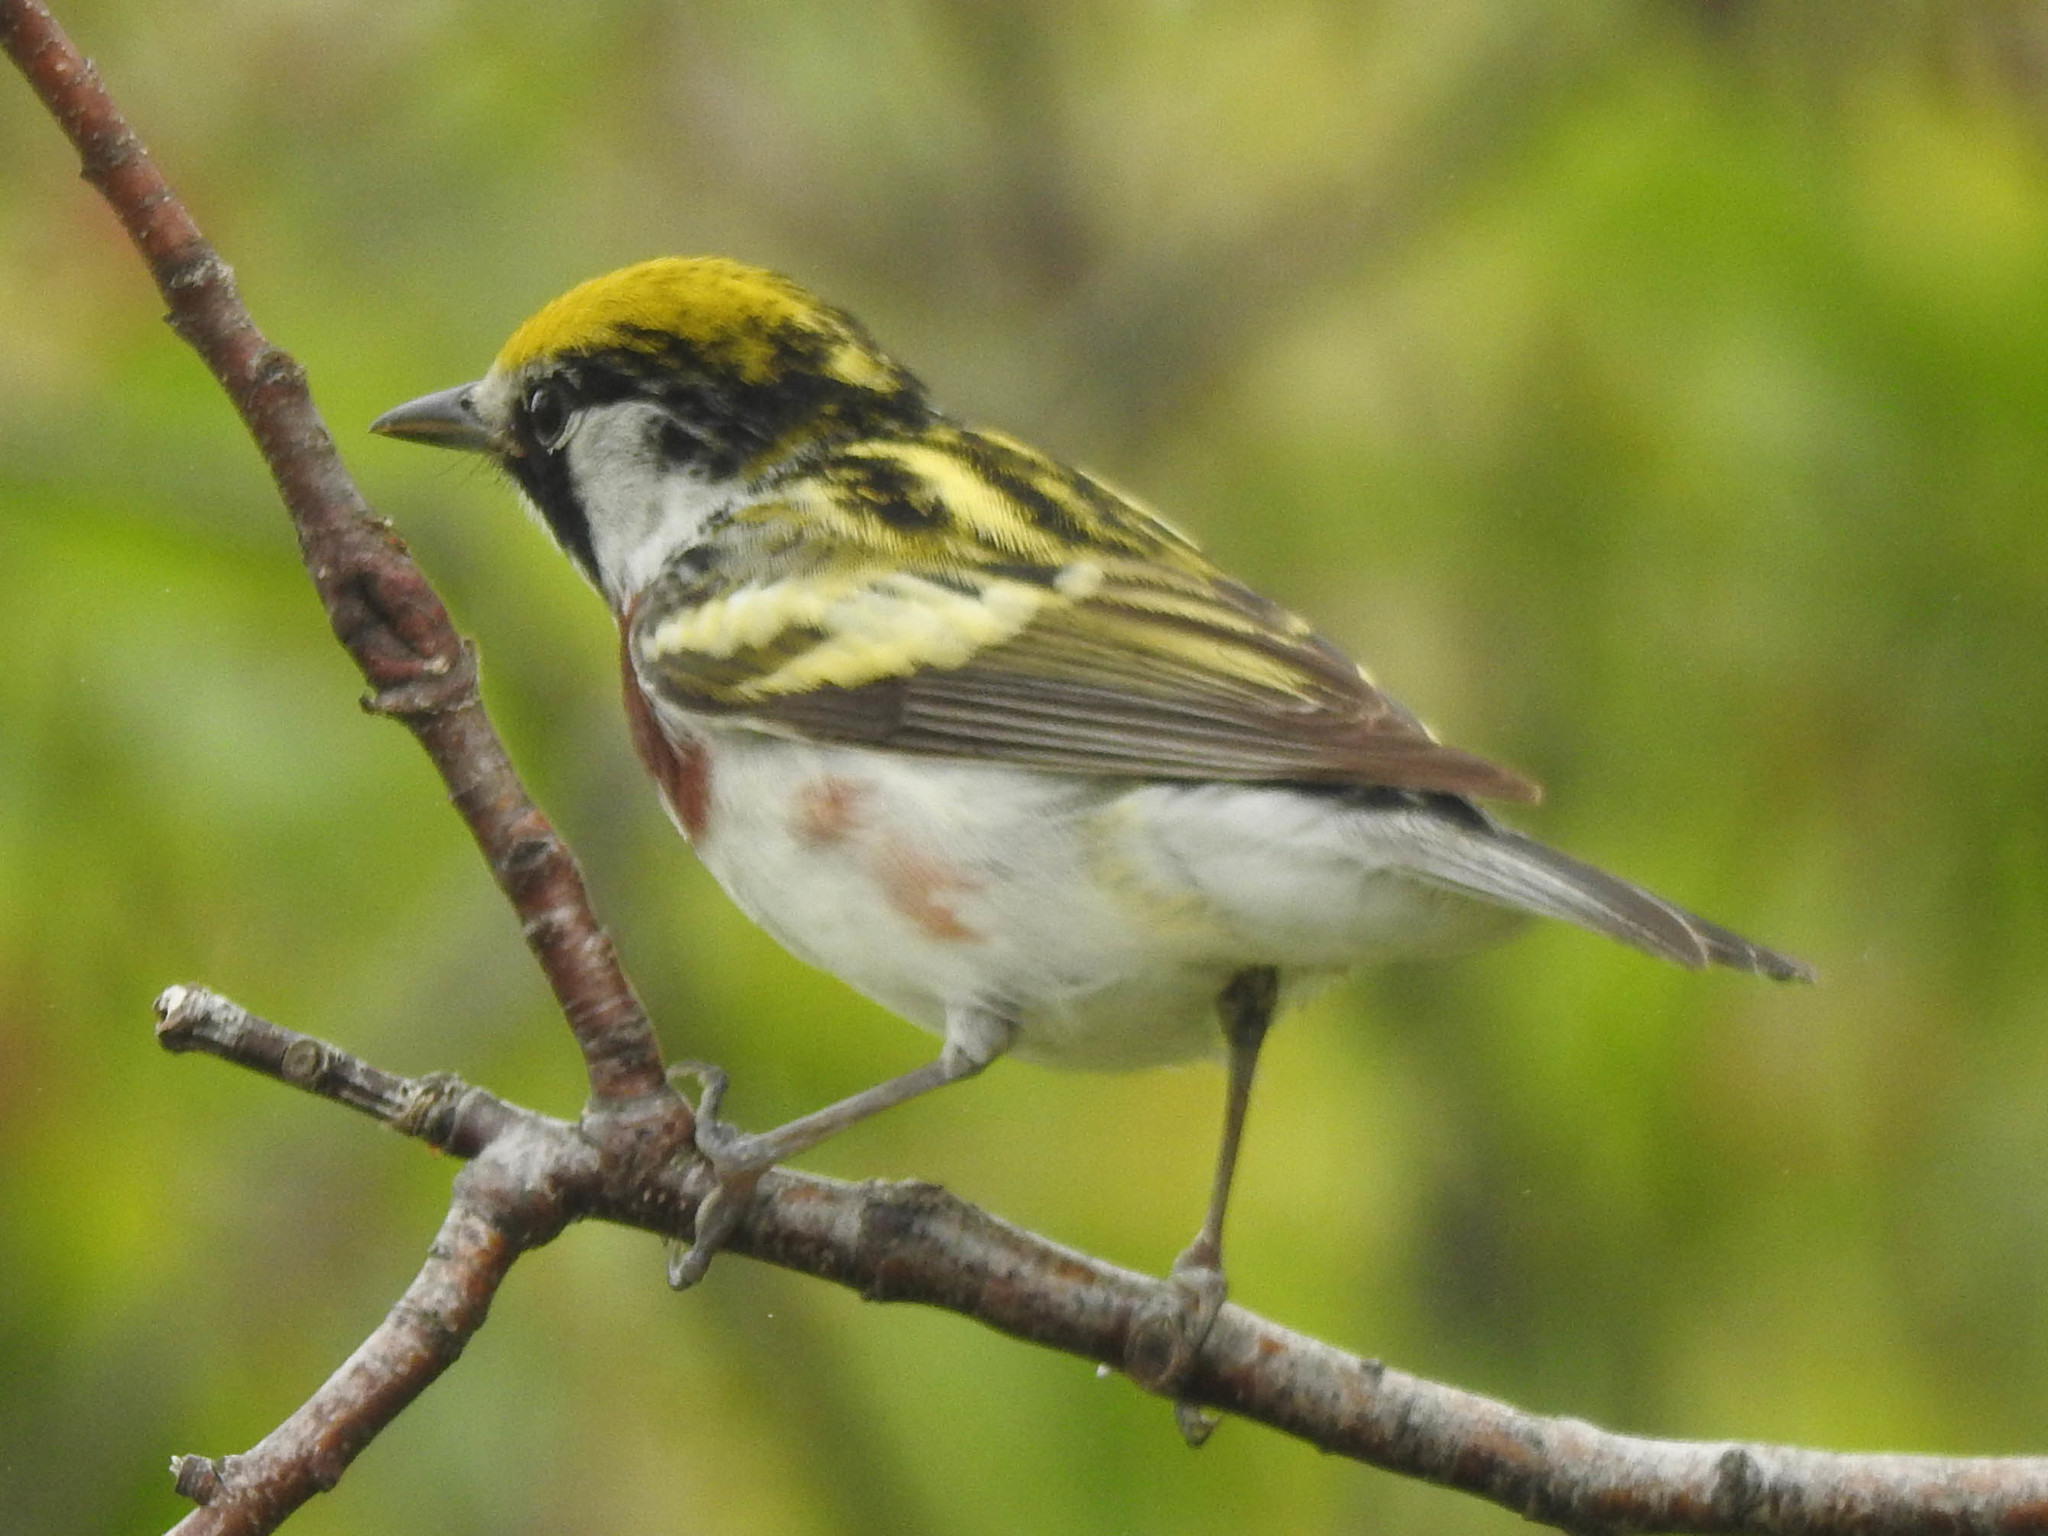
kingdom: Animalia
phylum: Chordata
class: Aves
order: Passeriformes
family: Parulidae
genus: Setophaga
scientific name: Setophaga pensylvanica
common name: Chestnut-sided warbler
